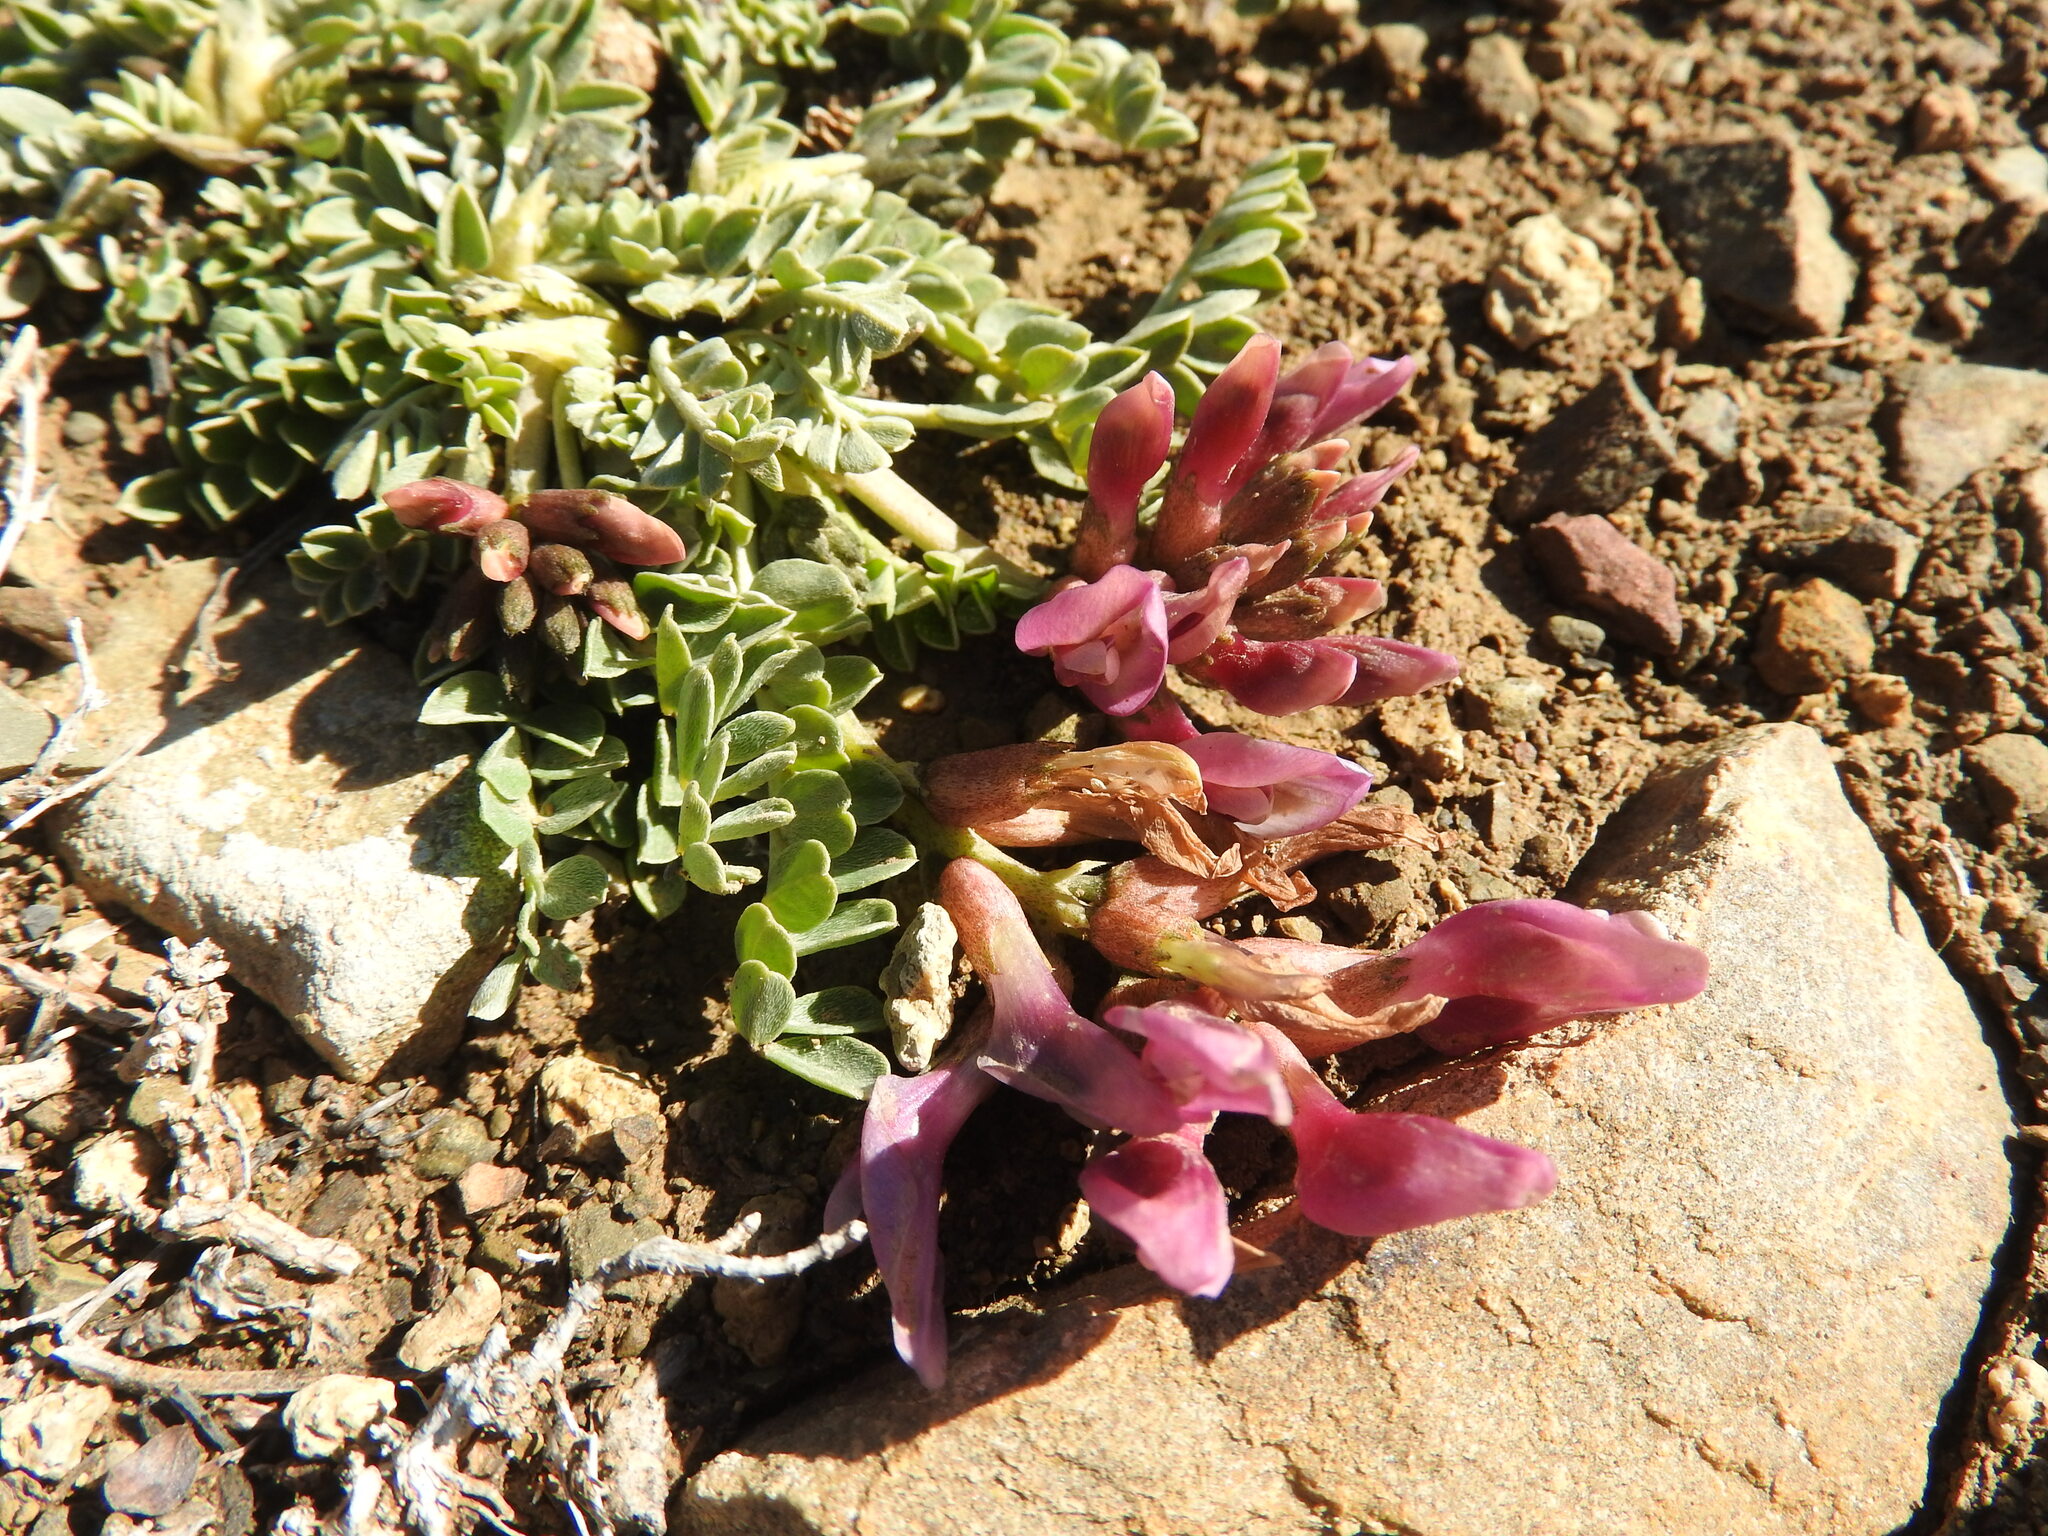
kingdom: Plantae
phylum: Tracheophyta
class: Magnoliopsida
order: Fabales
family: Fabaceae
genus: Astragalus
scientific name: Astragalus incanus
